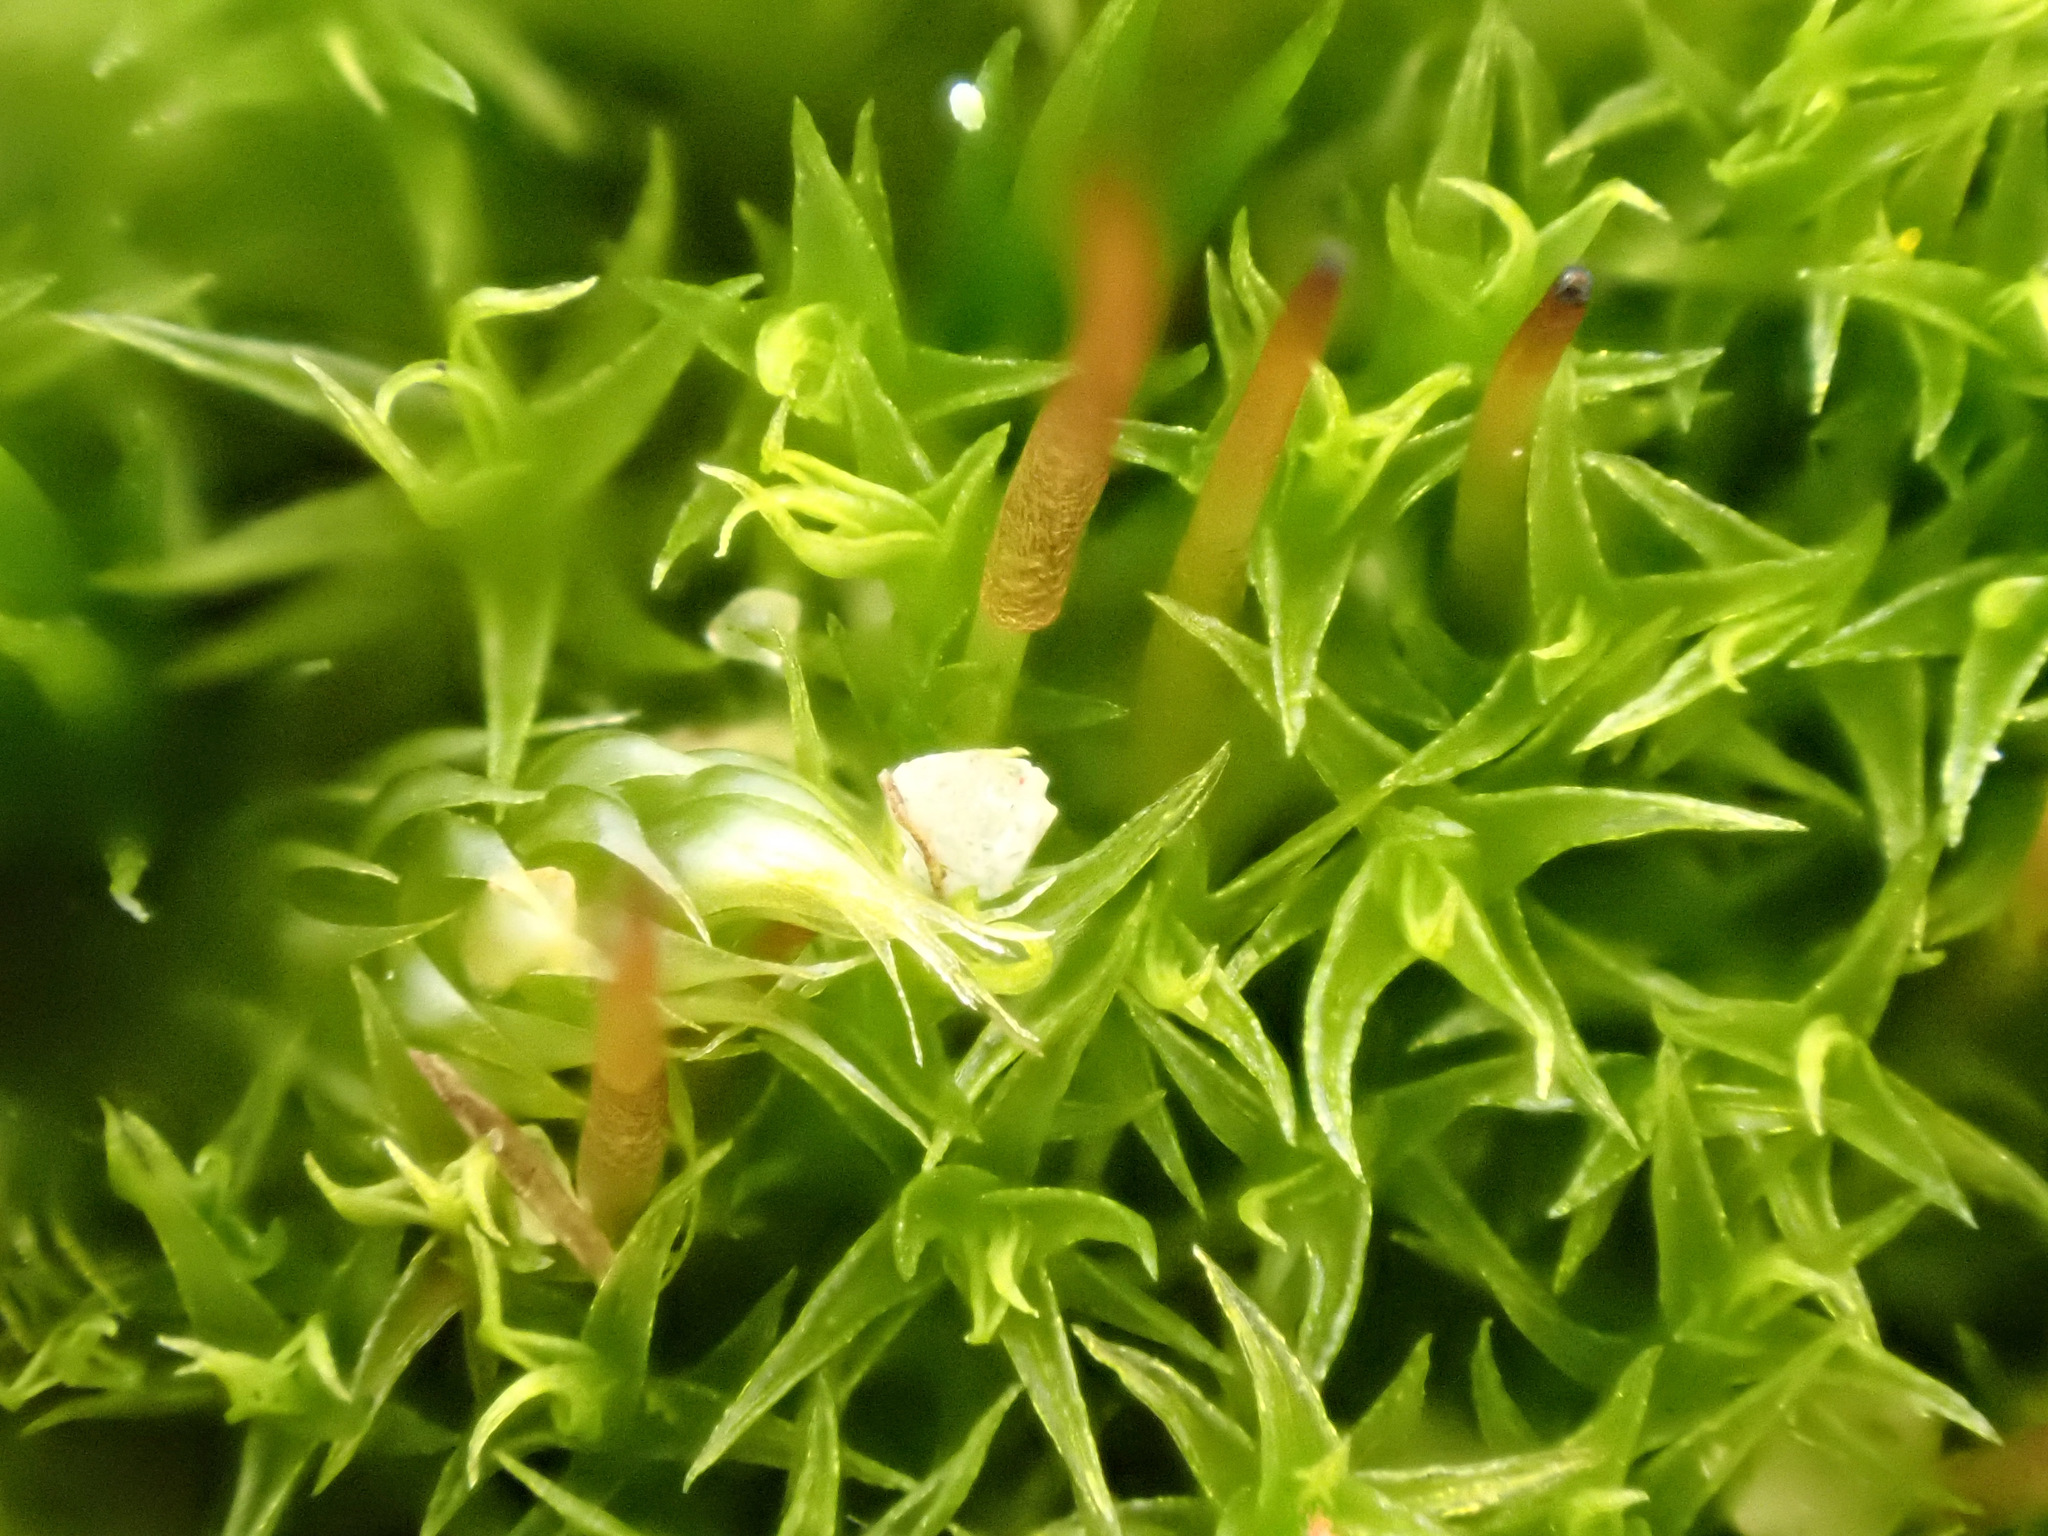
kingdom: Plantae
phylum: Bryophyta
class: Bryopsida
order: Dicranales
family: Ditrichaceae
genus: Ceratodon
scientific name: Ceratodon purpureus
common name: Redshank
